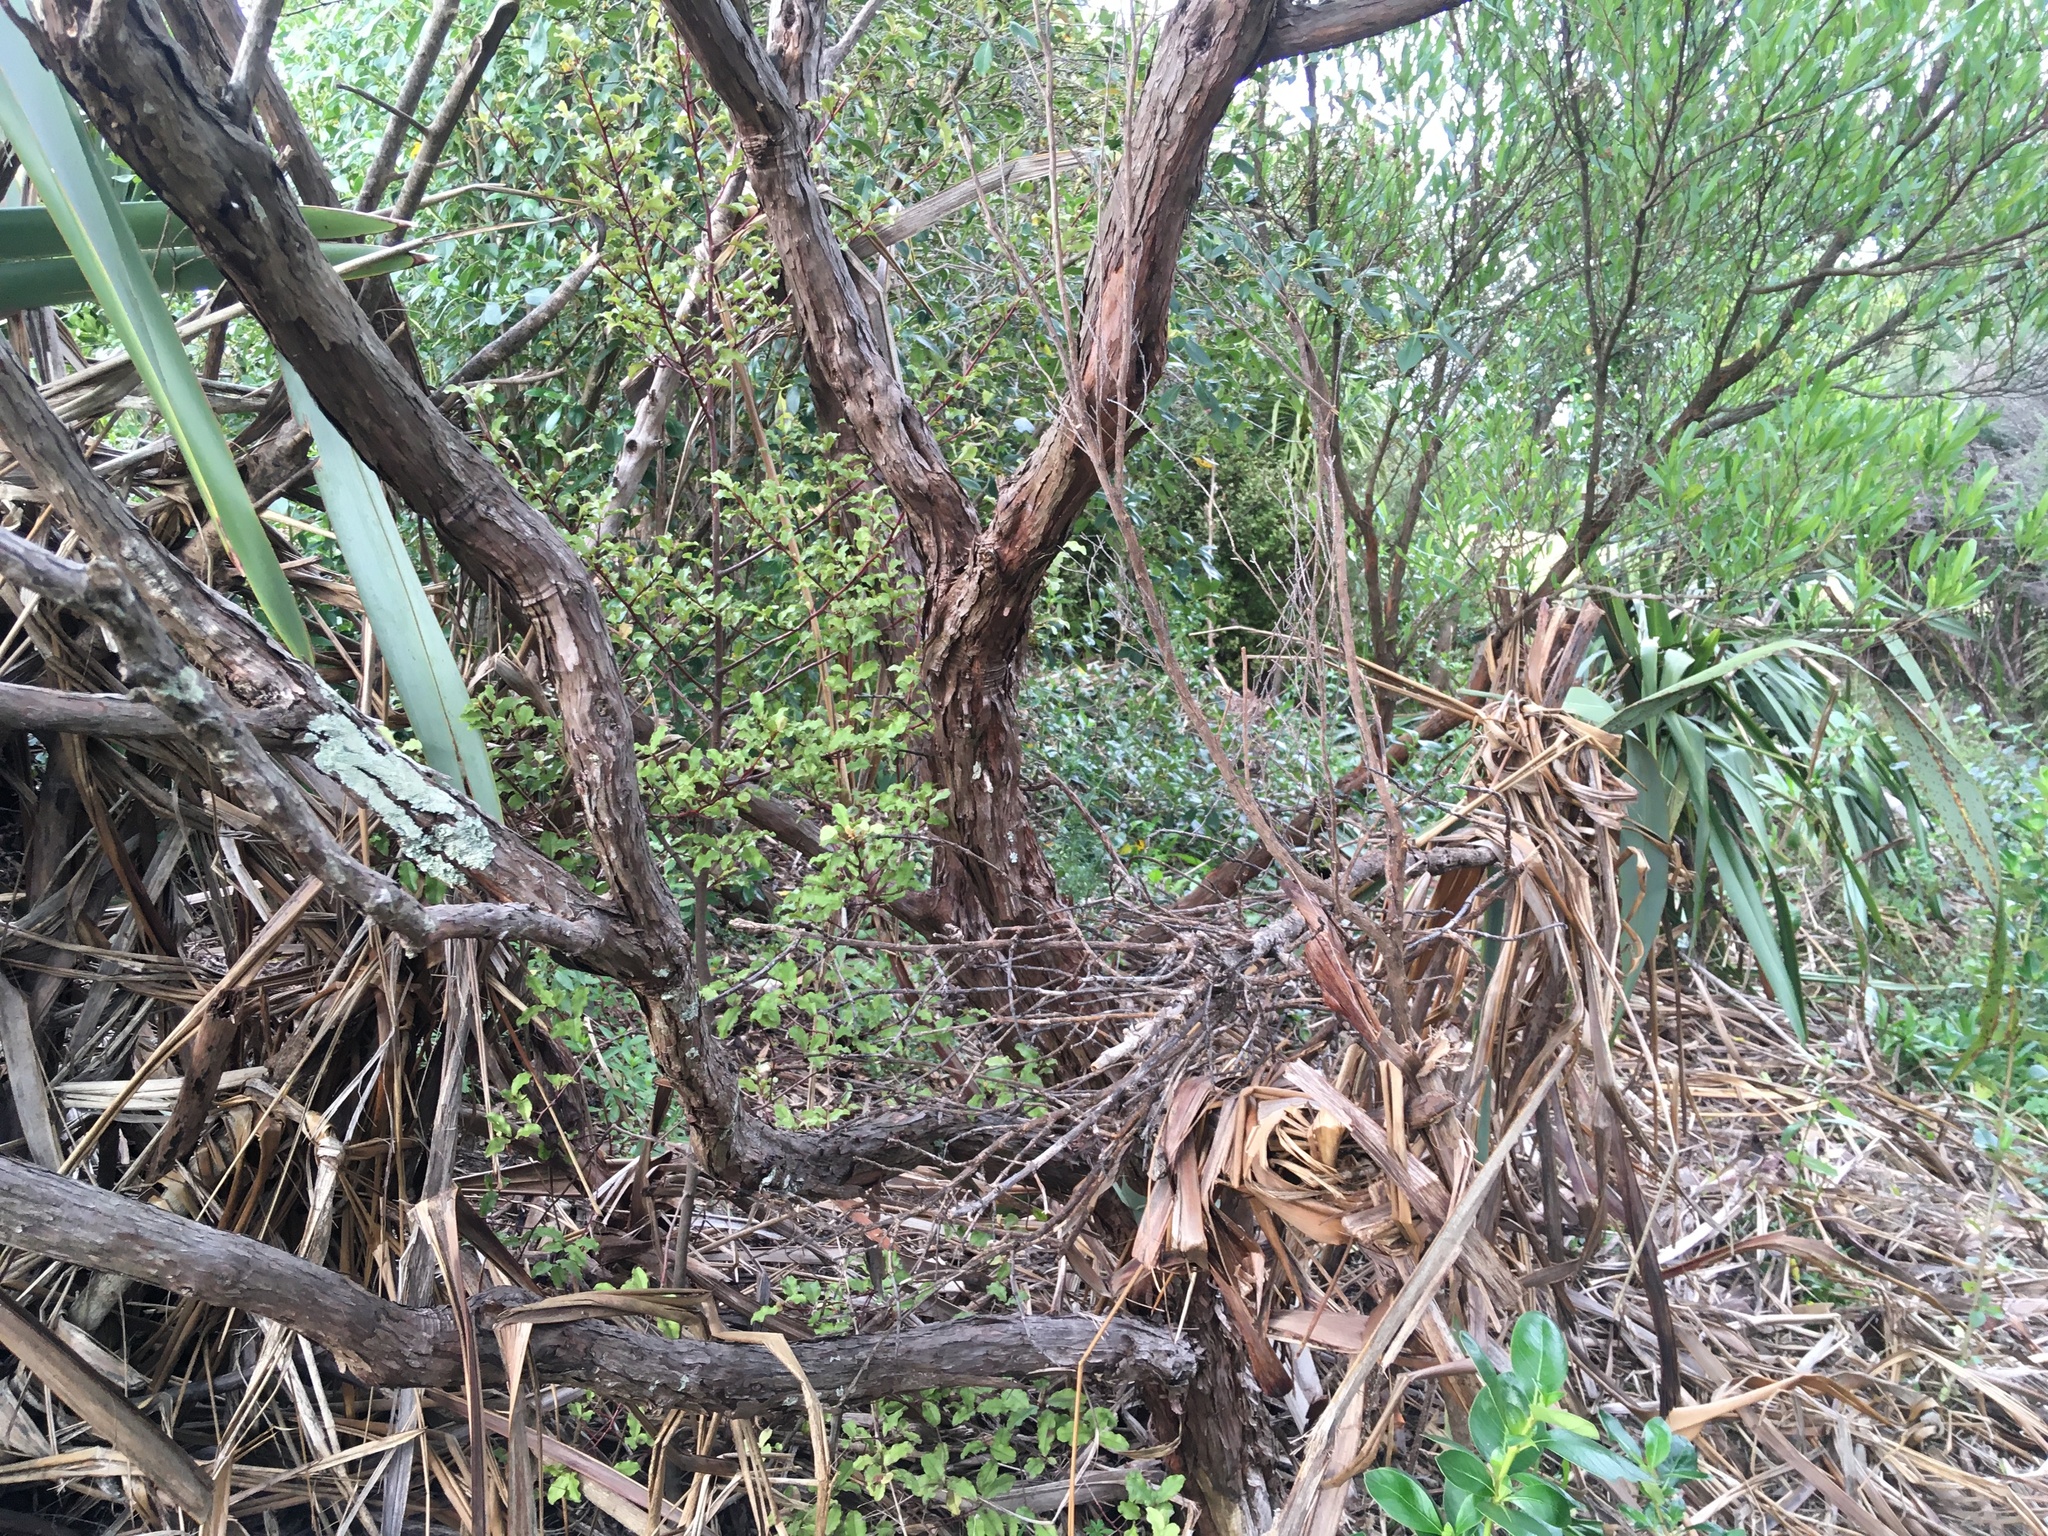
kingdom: Plantae
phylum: Tracheophyta
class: Magnoliopsida
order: Ericales
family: Primulaceae
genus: Myrsine
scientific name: Myrsine australis
